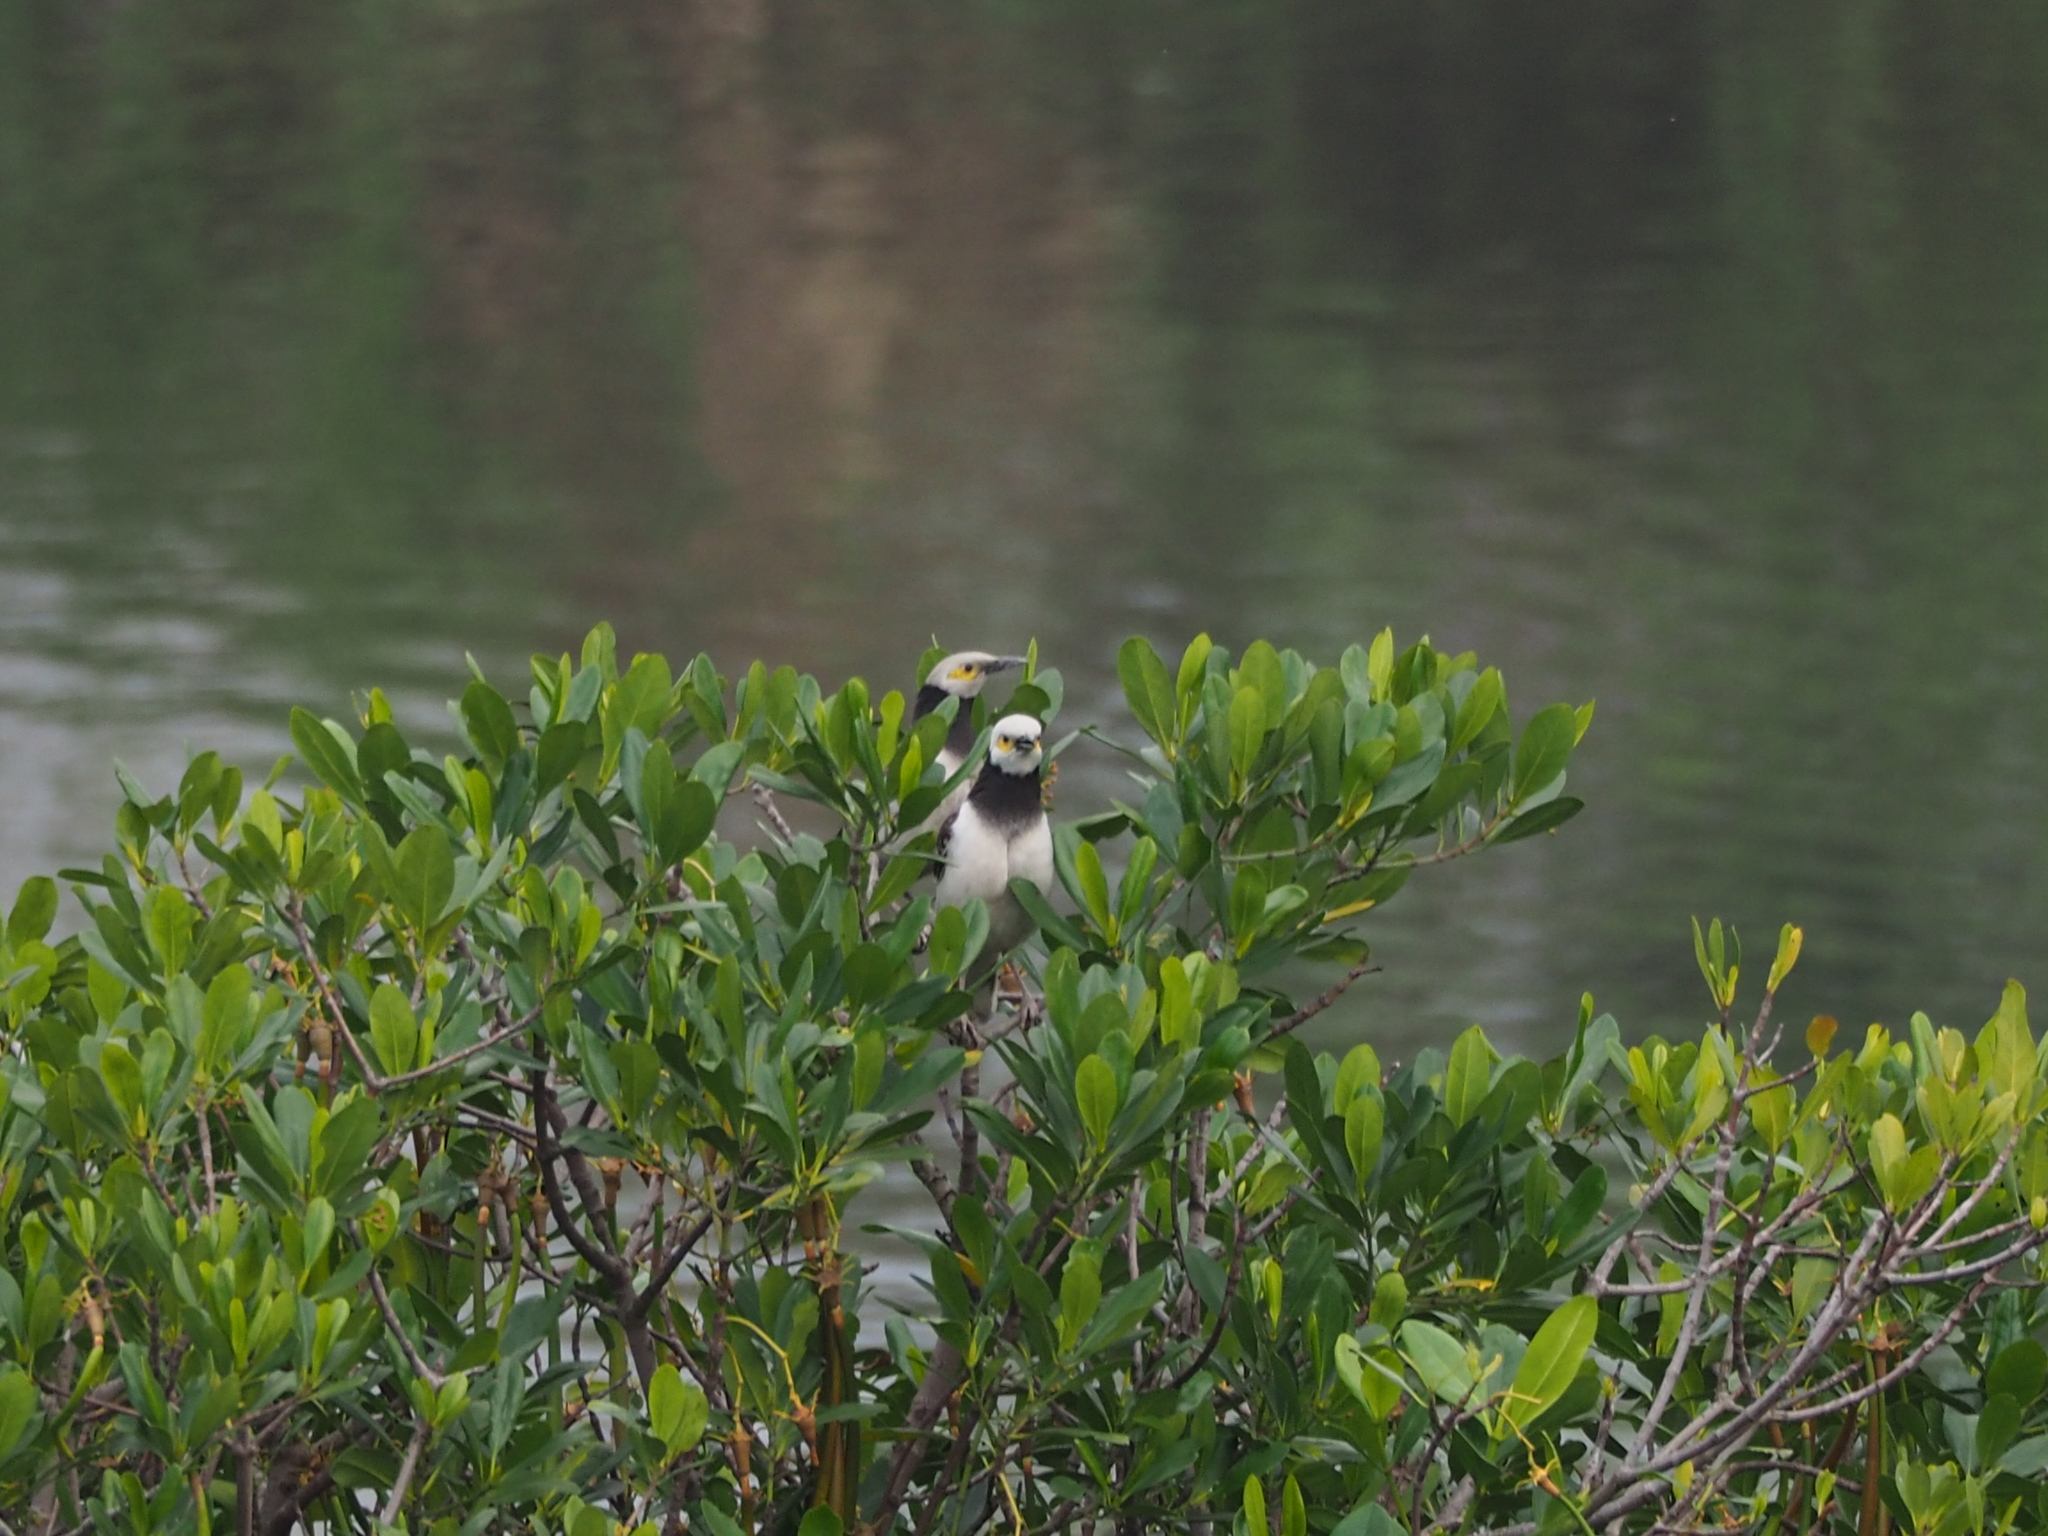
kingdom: Animalia
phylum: Chordata
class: Aves
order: Passeriformes
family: Sturnidae
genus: Gracupica
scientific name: Gracupica nigricollis
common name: Black-collared starling
